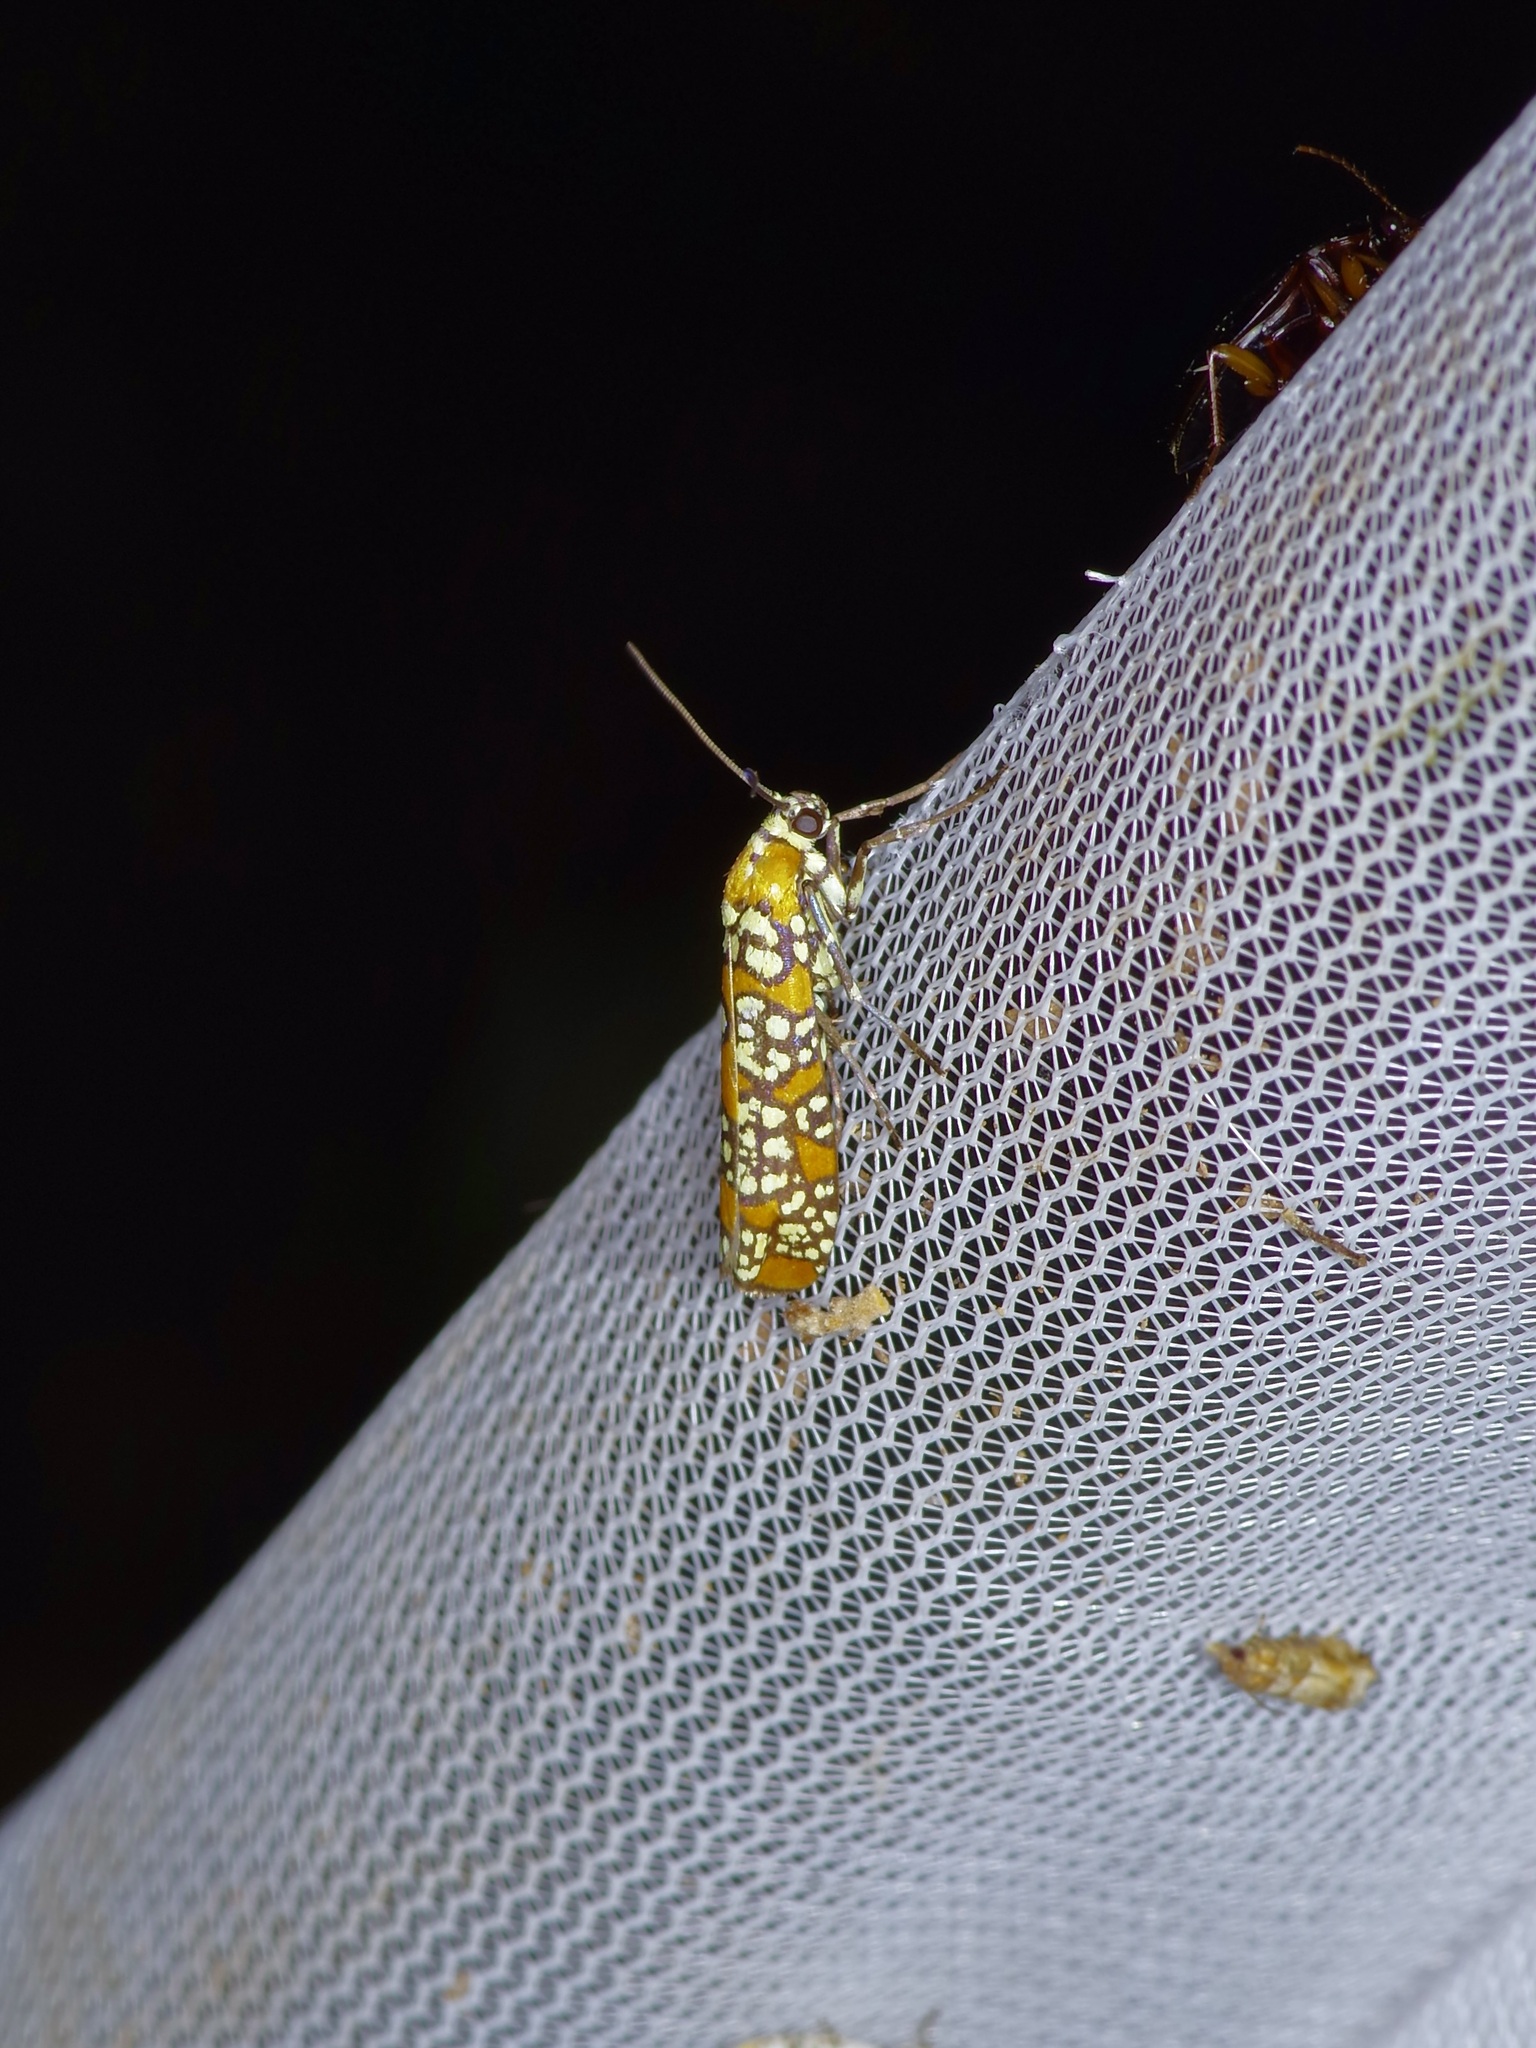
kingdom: Animalia
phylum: Arthropoda
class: Insecta
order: Lepidoptera
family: Attevidae
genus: Atteva
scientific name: Atteva punctella
